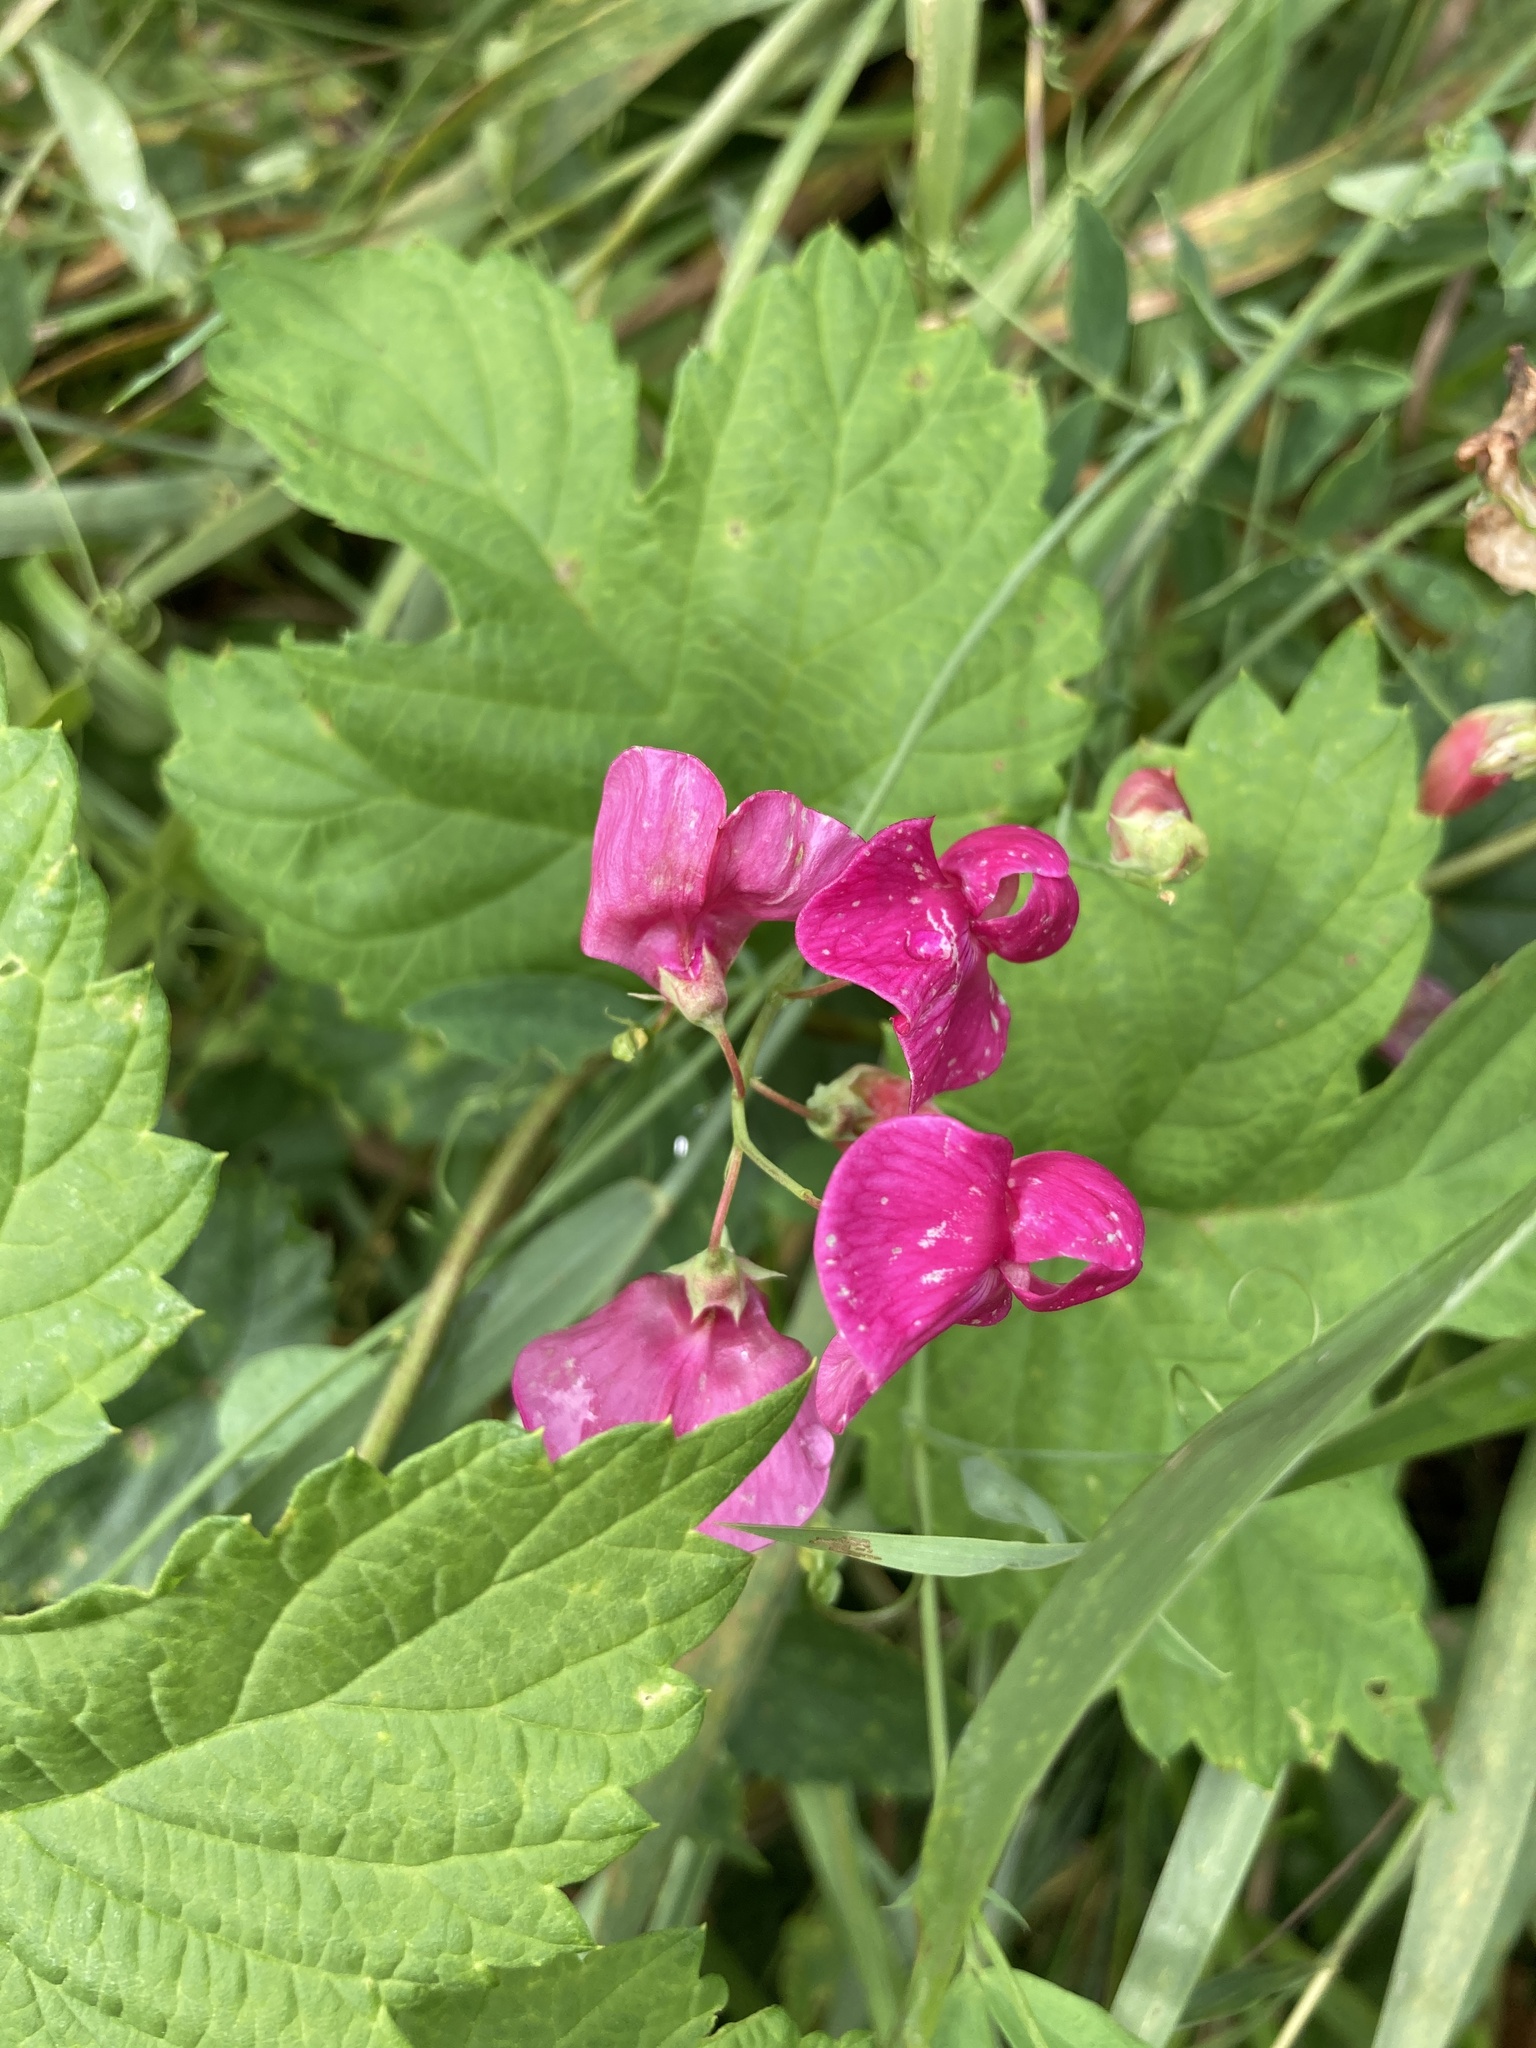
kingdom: Plantae
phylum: Tracheophyta
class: Magnoliopsida
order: Fabales
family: Fabaceae
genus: Lathyrus
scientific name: Lathyrus tuberosus
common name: Tuberous pea
